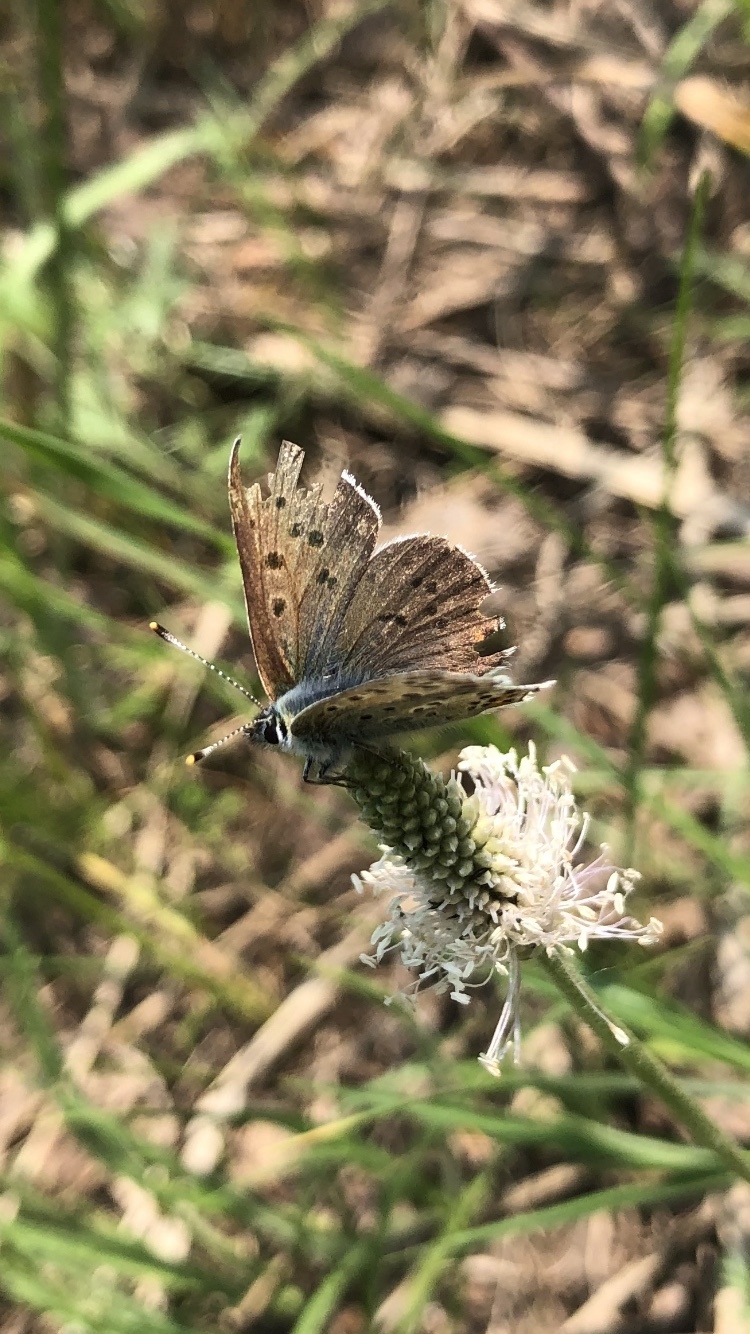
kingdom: Animalia
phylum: Arthropoda
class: Insecta
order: Lepidoptera
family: Lycaenidae
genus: Loweia
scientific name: Loweia tityrus
